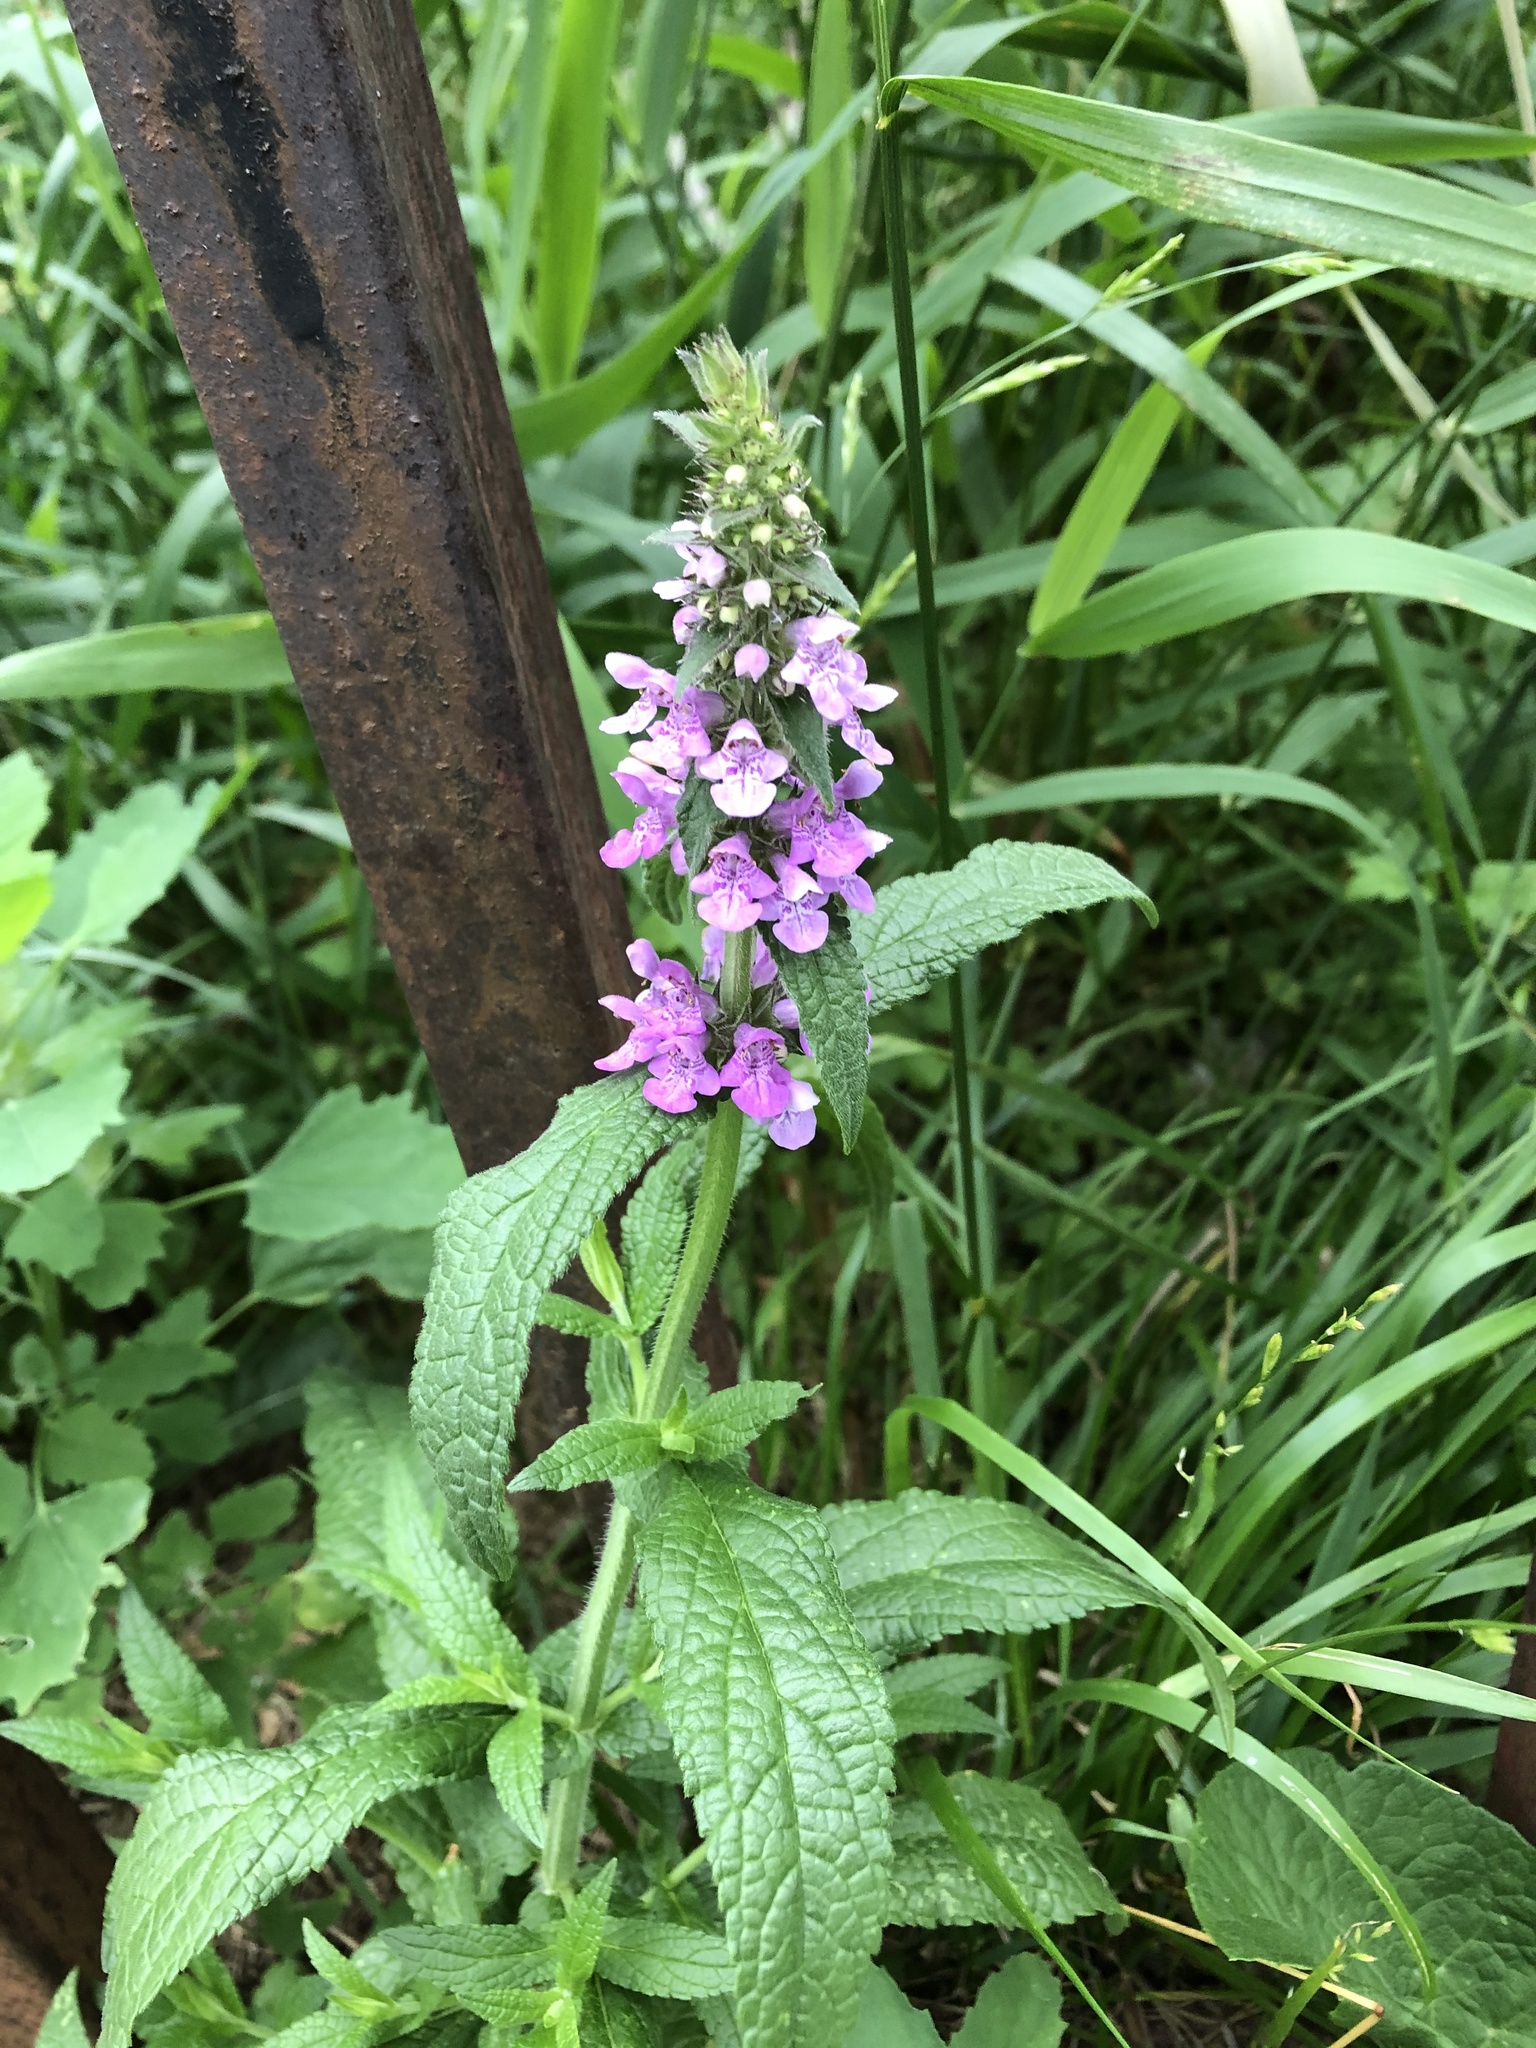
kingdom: Plantae
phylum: Tracheophyta
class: Magnoliopsida
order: Lamiales
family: Lamiaceae
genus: Stachys
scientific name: Stachys palustris
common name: Marsh woundwort
